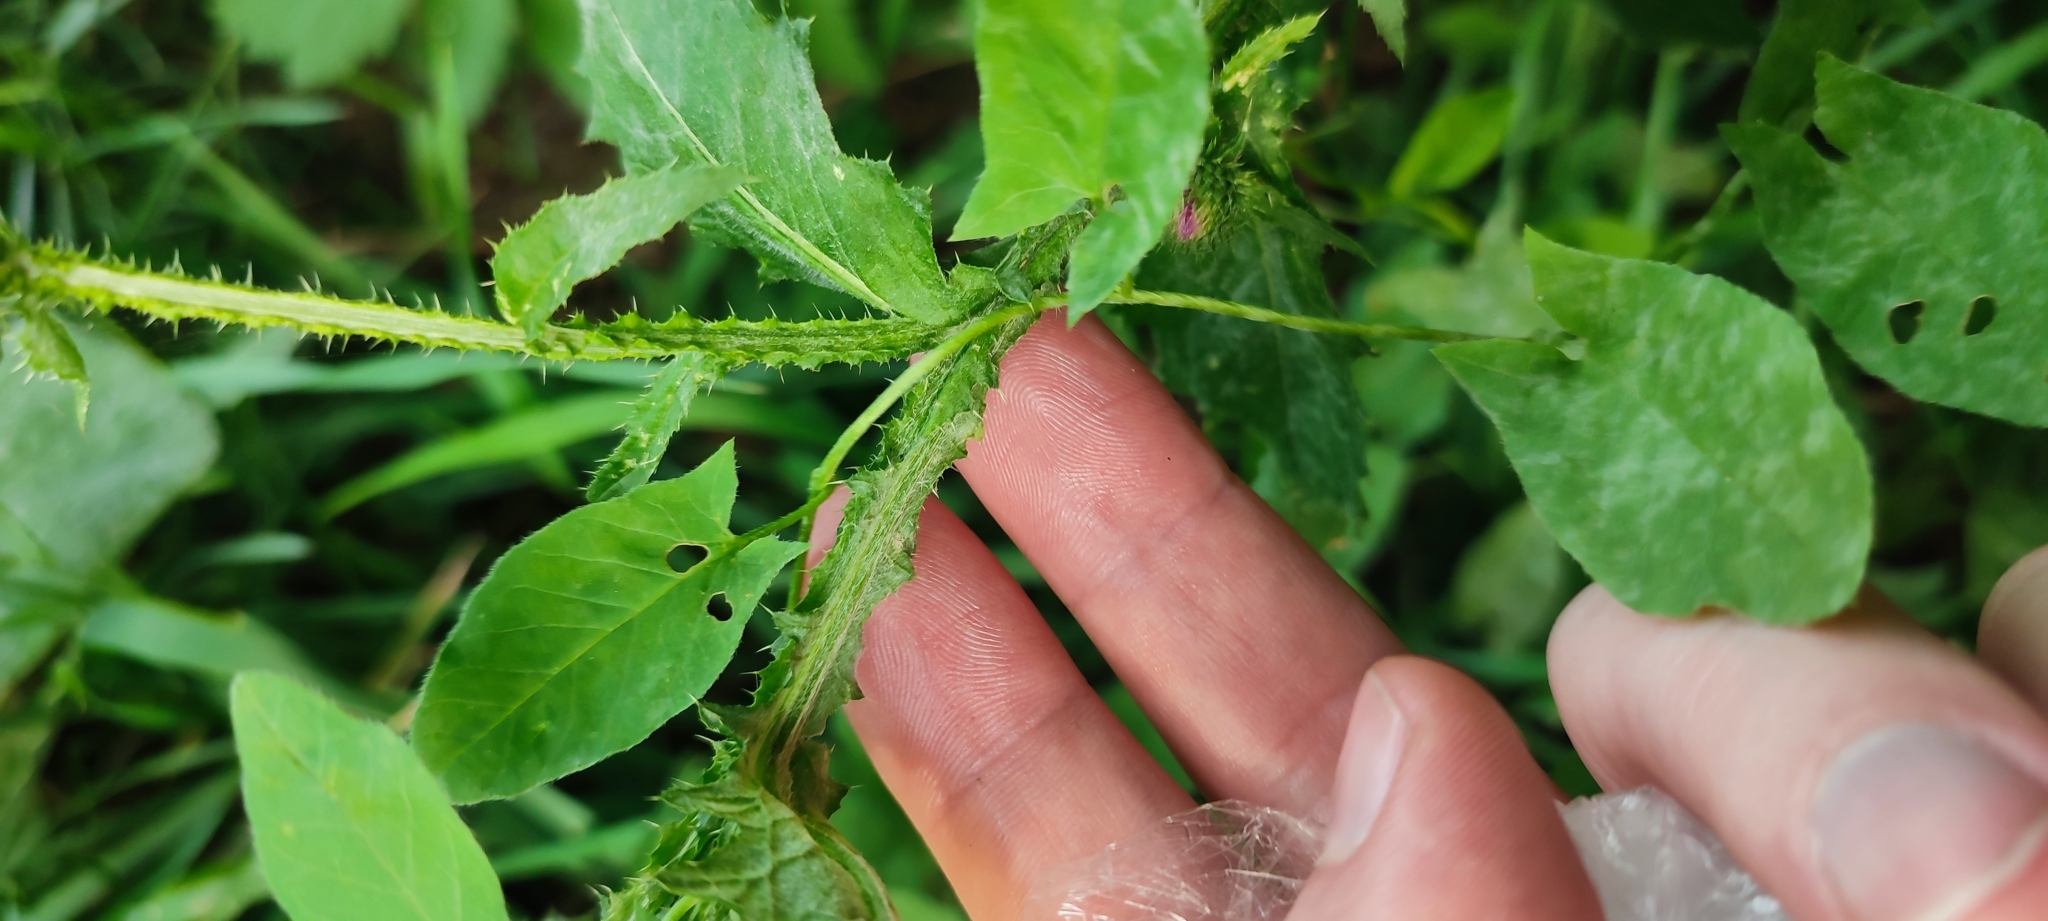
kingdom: Plantae
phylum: Tracheophyta
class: Magnoliopsida
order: Asterales
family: Asteraceae
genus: Carduus
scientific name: Carduus crispus
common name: Welted thistle
